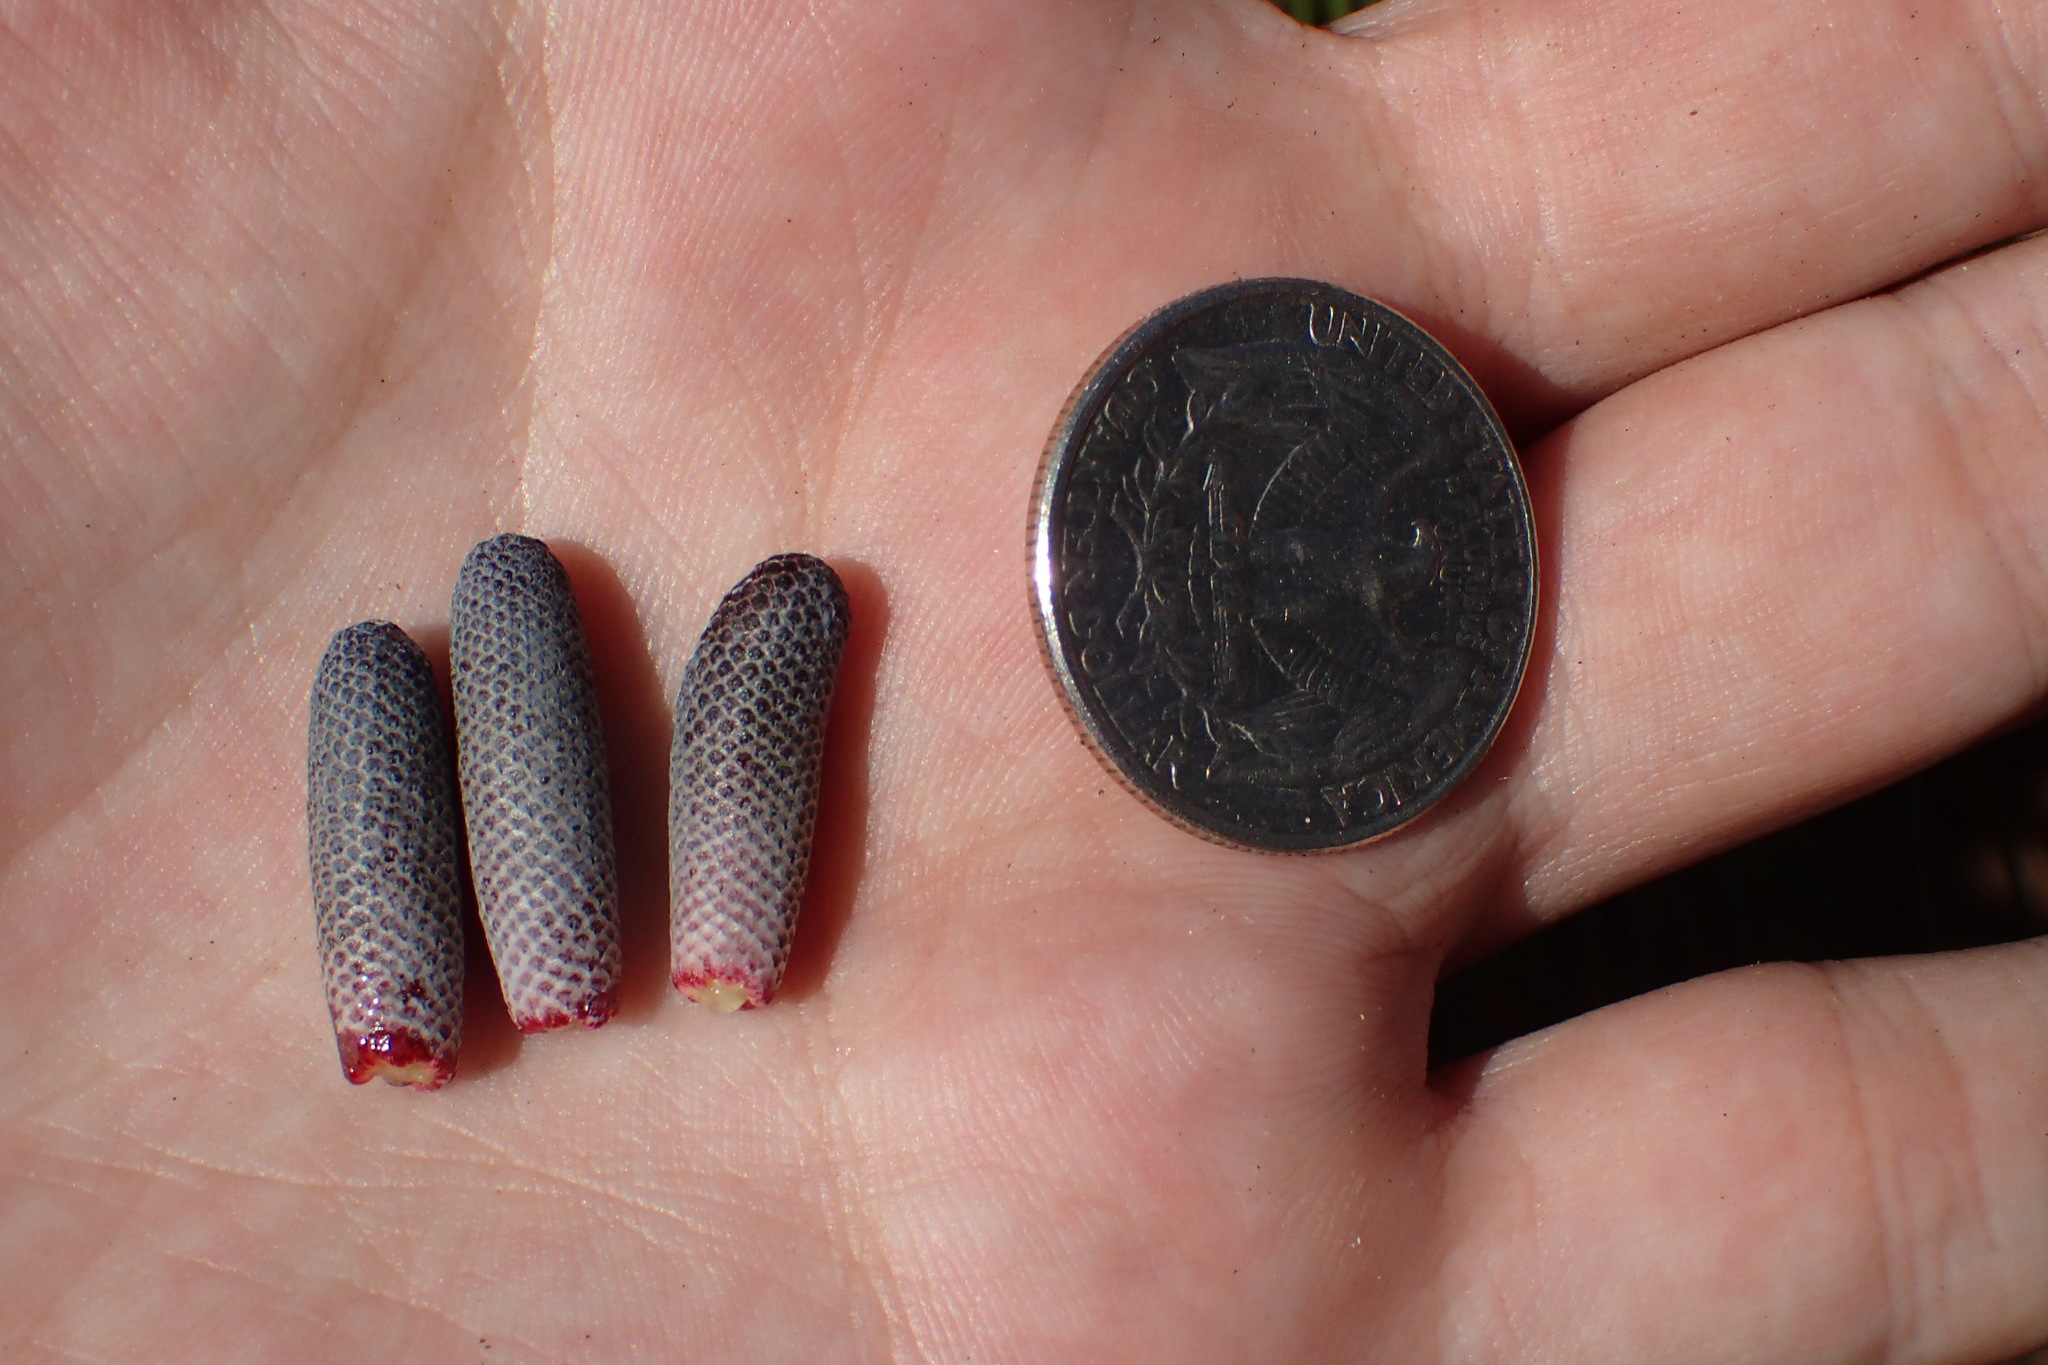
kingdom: Plantae
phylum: Tracheophyta
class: Pinopsida
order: Pinales
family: Pinaceae
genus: Pinus
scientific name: Pinus palustris
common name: Longleaf pine
